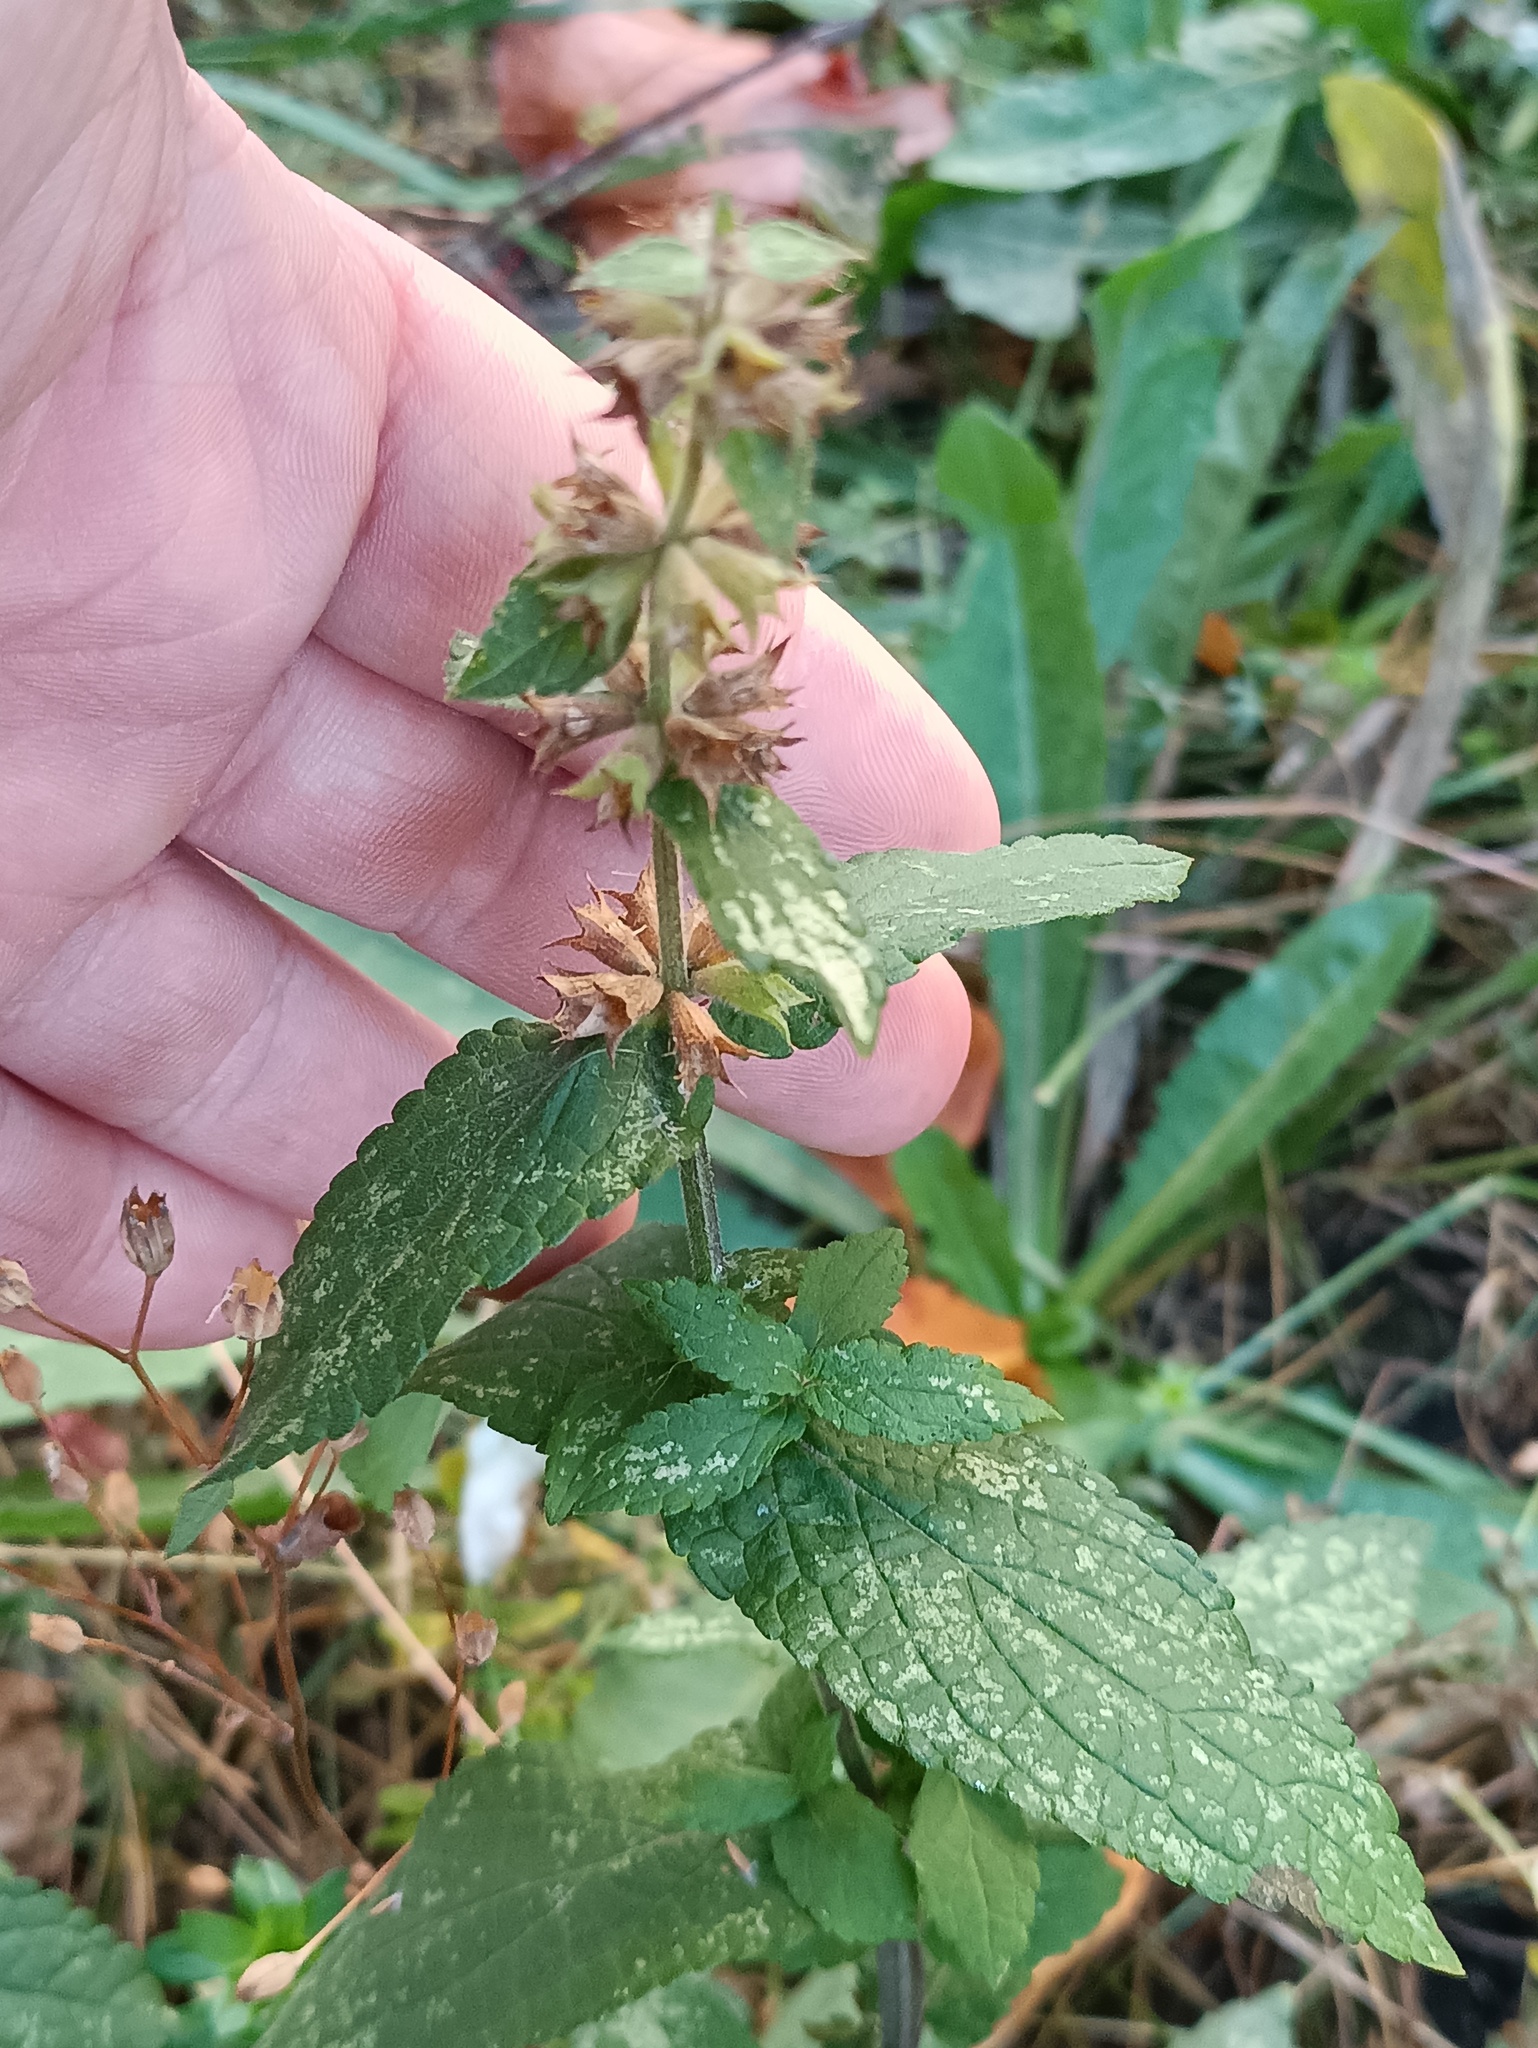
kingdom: Plantae
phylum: Tracheophyta
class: Magnoliopsida
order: Lamiales
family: Lamiaceae
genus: Stachys
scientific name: Stachys palustris
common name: Marsh woundwort
